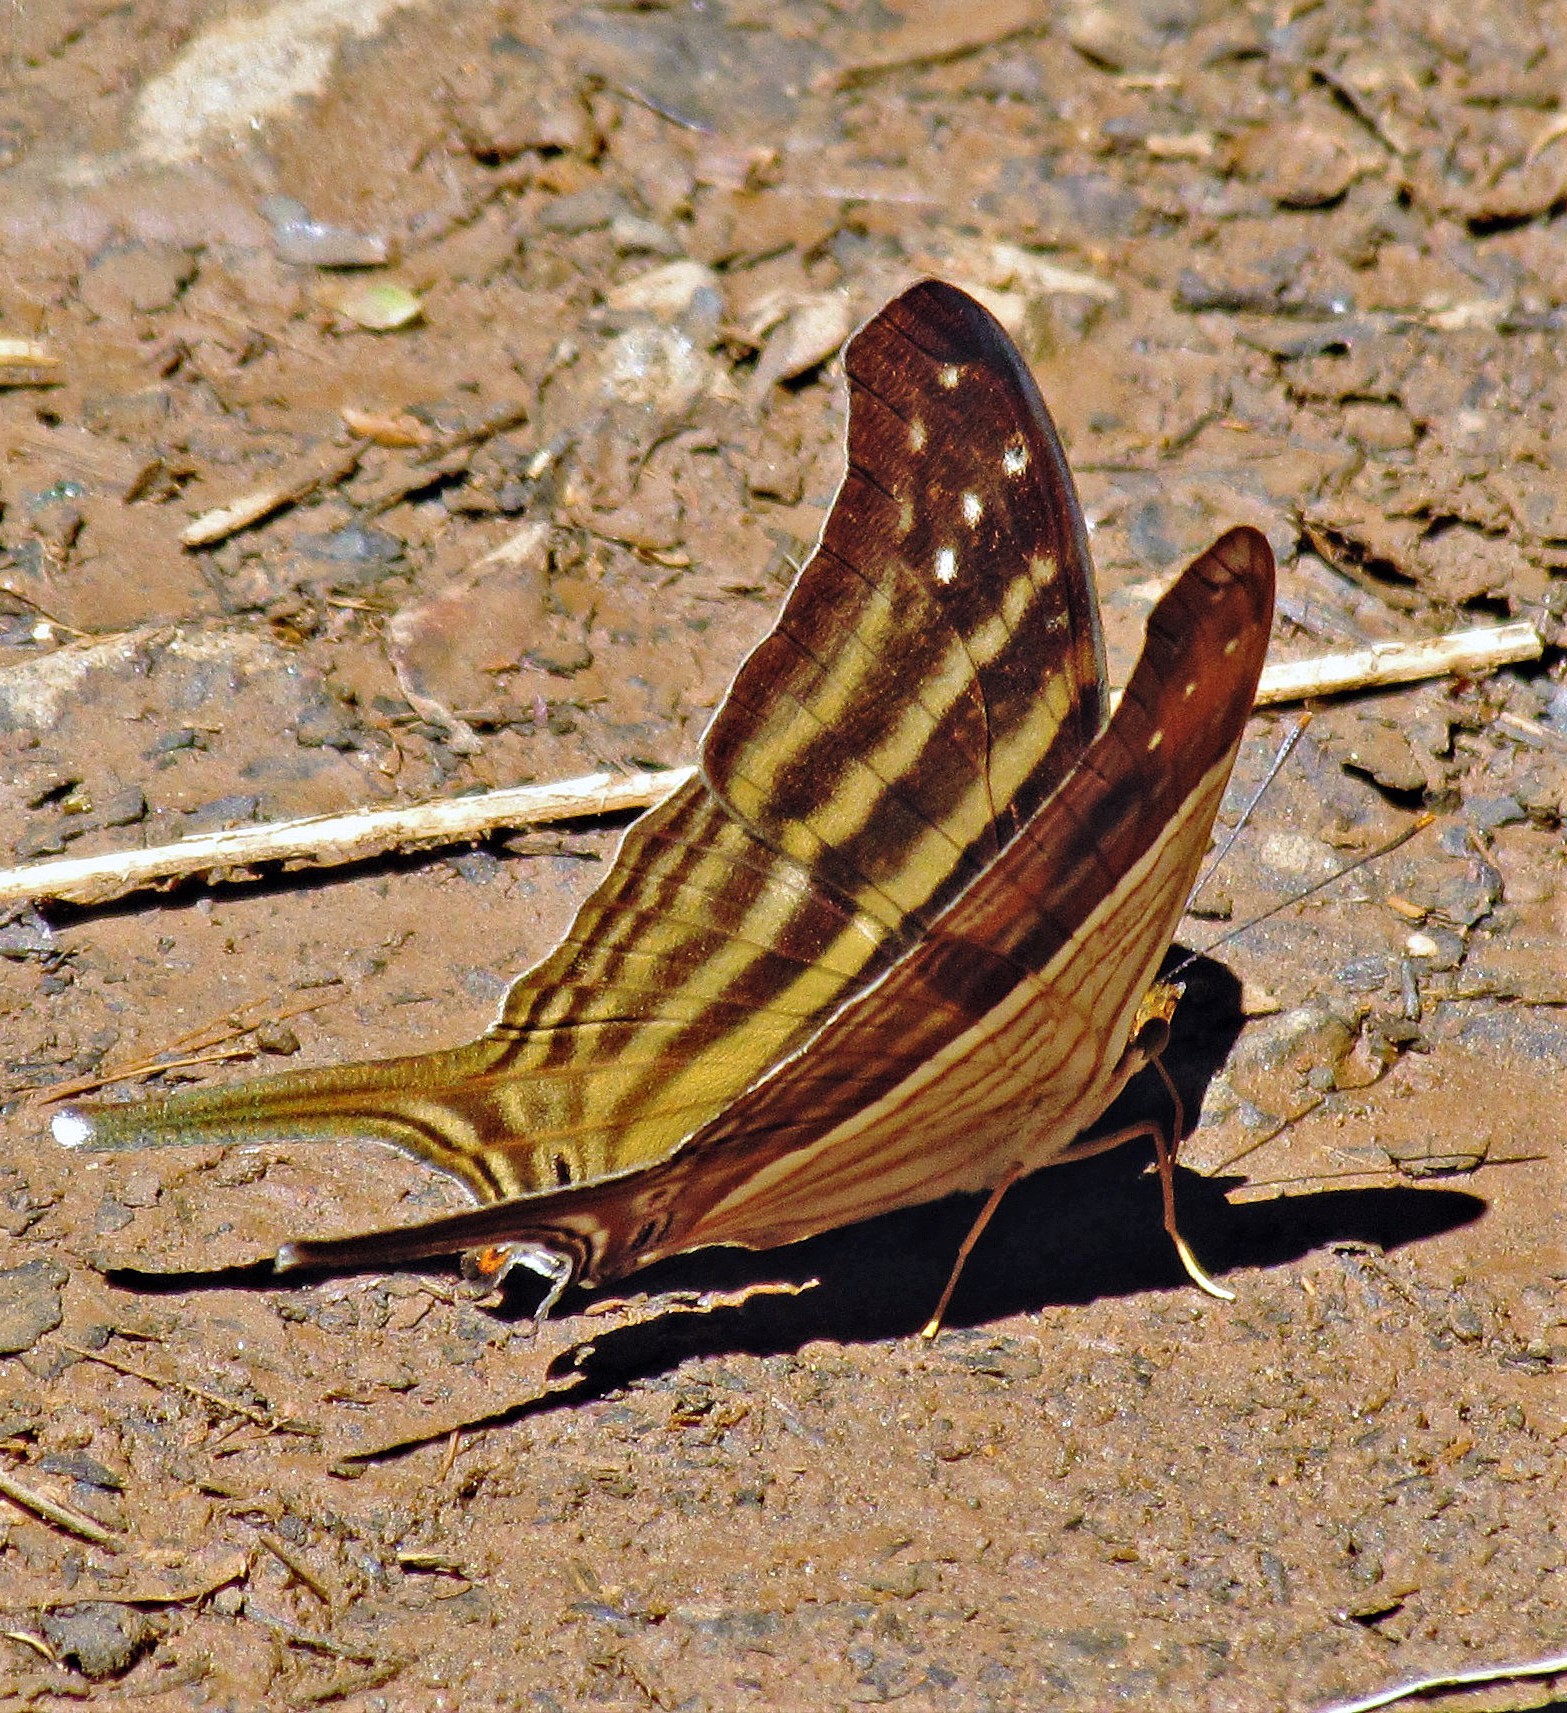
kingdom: Animalia
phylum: Arthropoda
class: Insecta
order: Lepidoptera
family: Nymphalidae
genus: Marpesia
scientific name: Marpesia chiron
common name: Many-banded daggerwing
